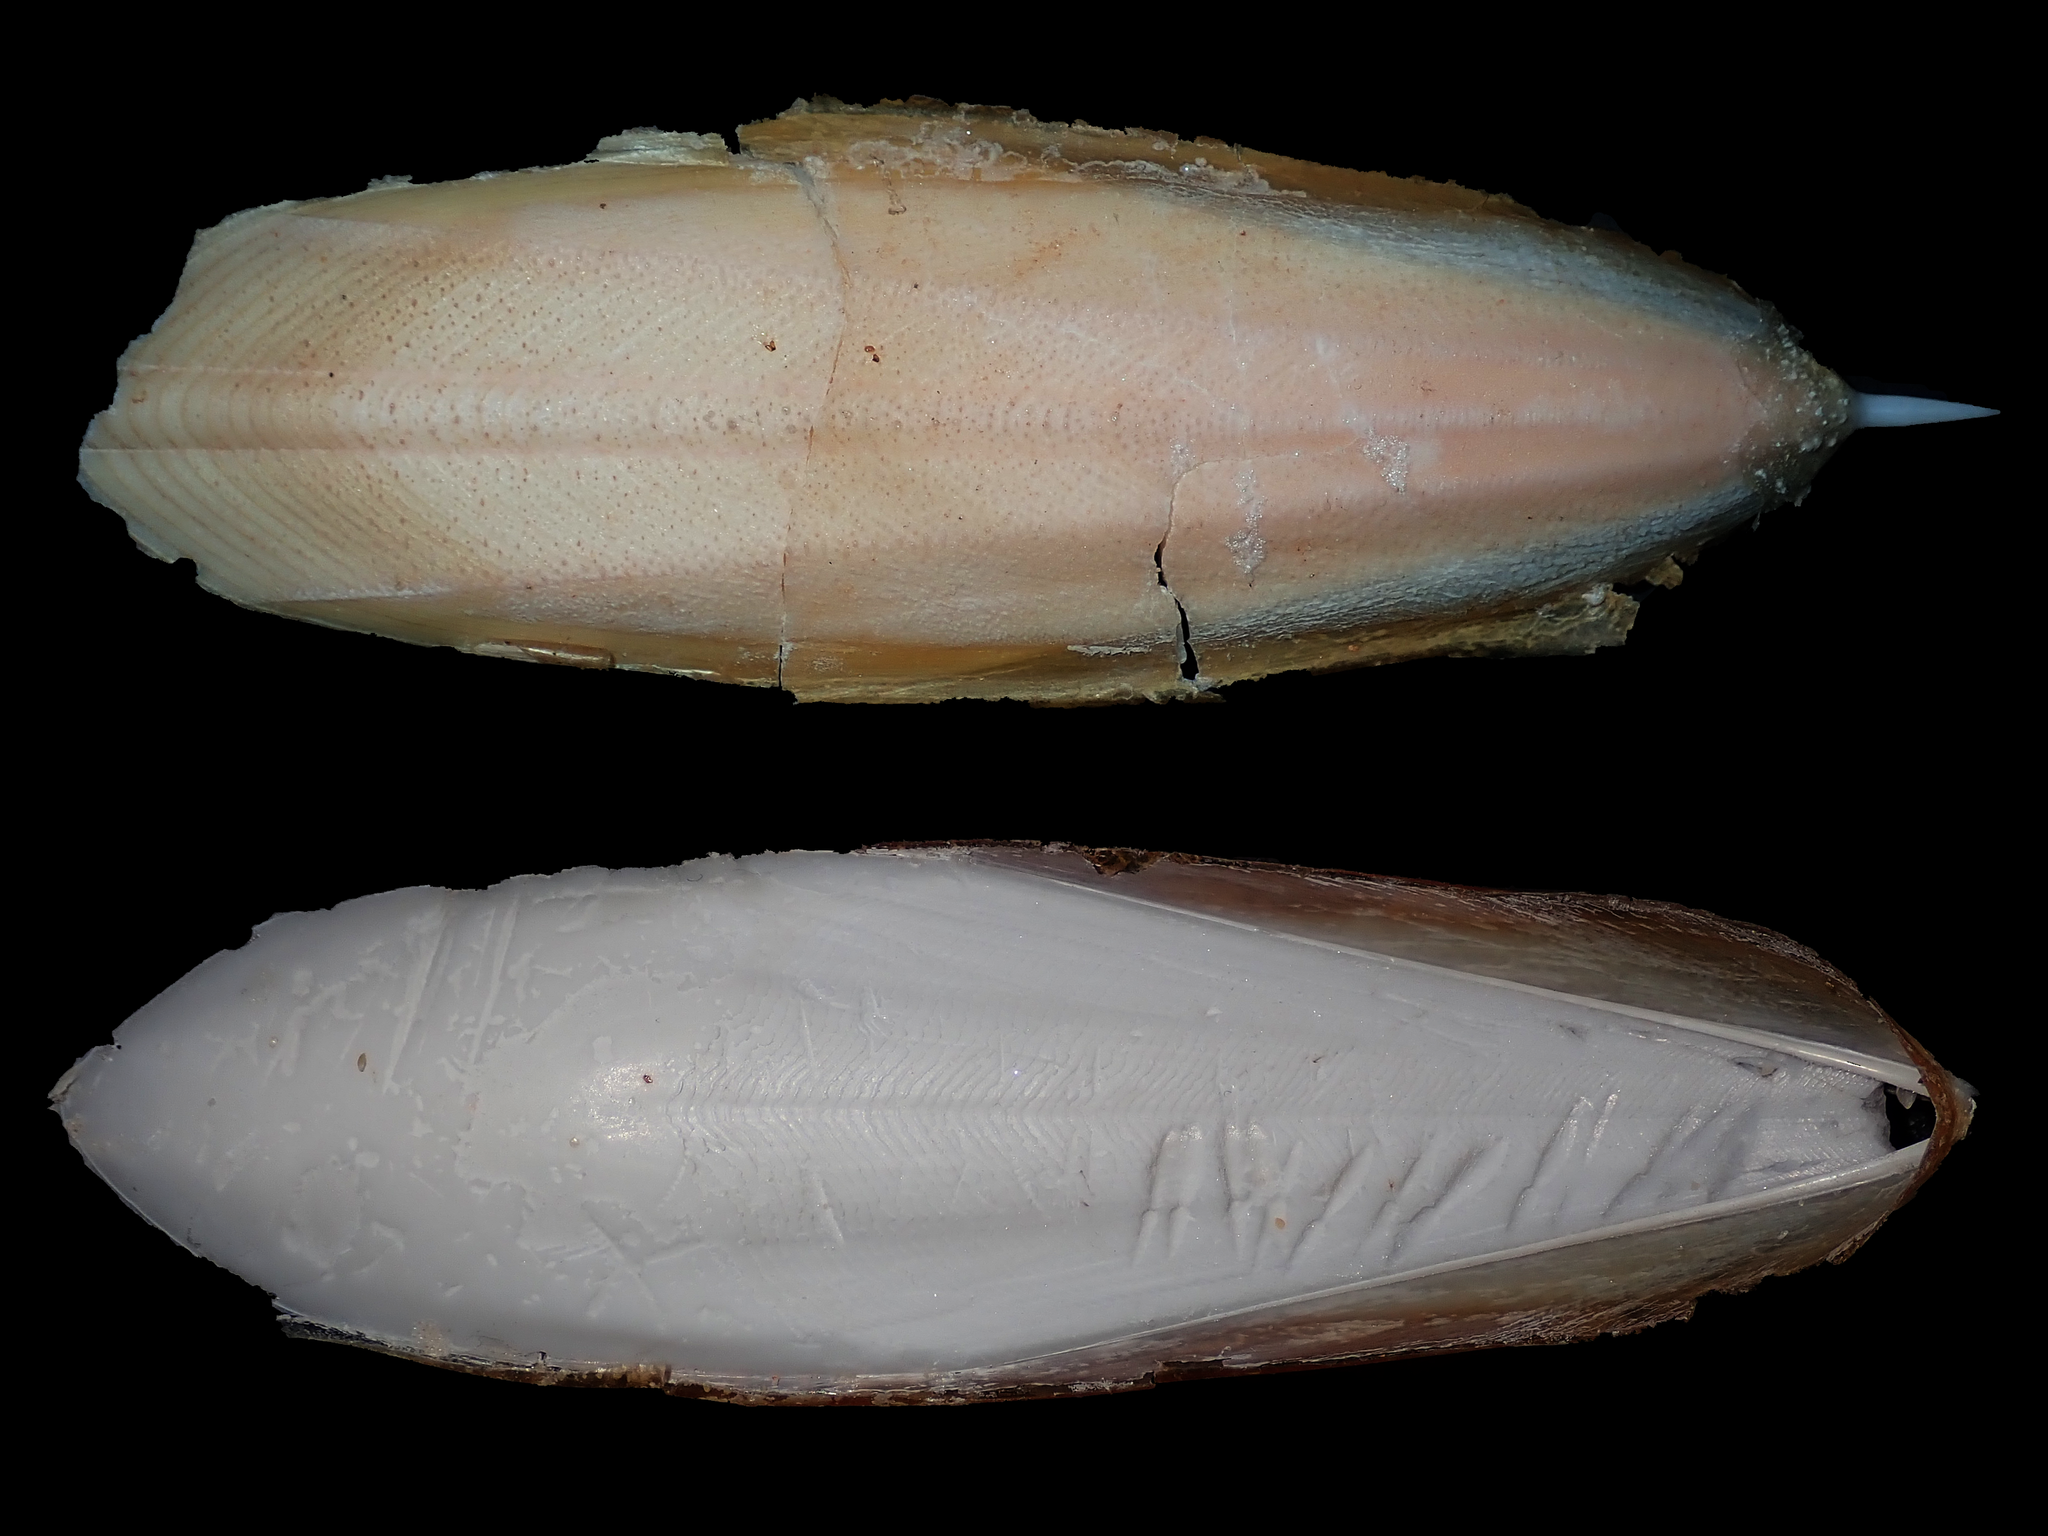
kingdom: Animalia
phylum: Mollusca
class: Cephalopoda
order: Sepiida
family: Sepiidae
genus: Ascarosepion
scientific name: Ascarosepion opiparum
